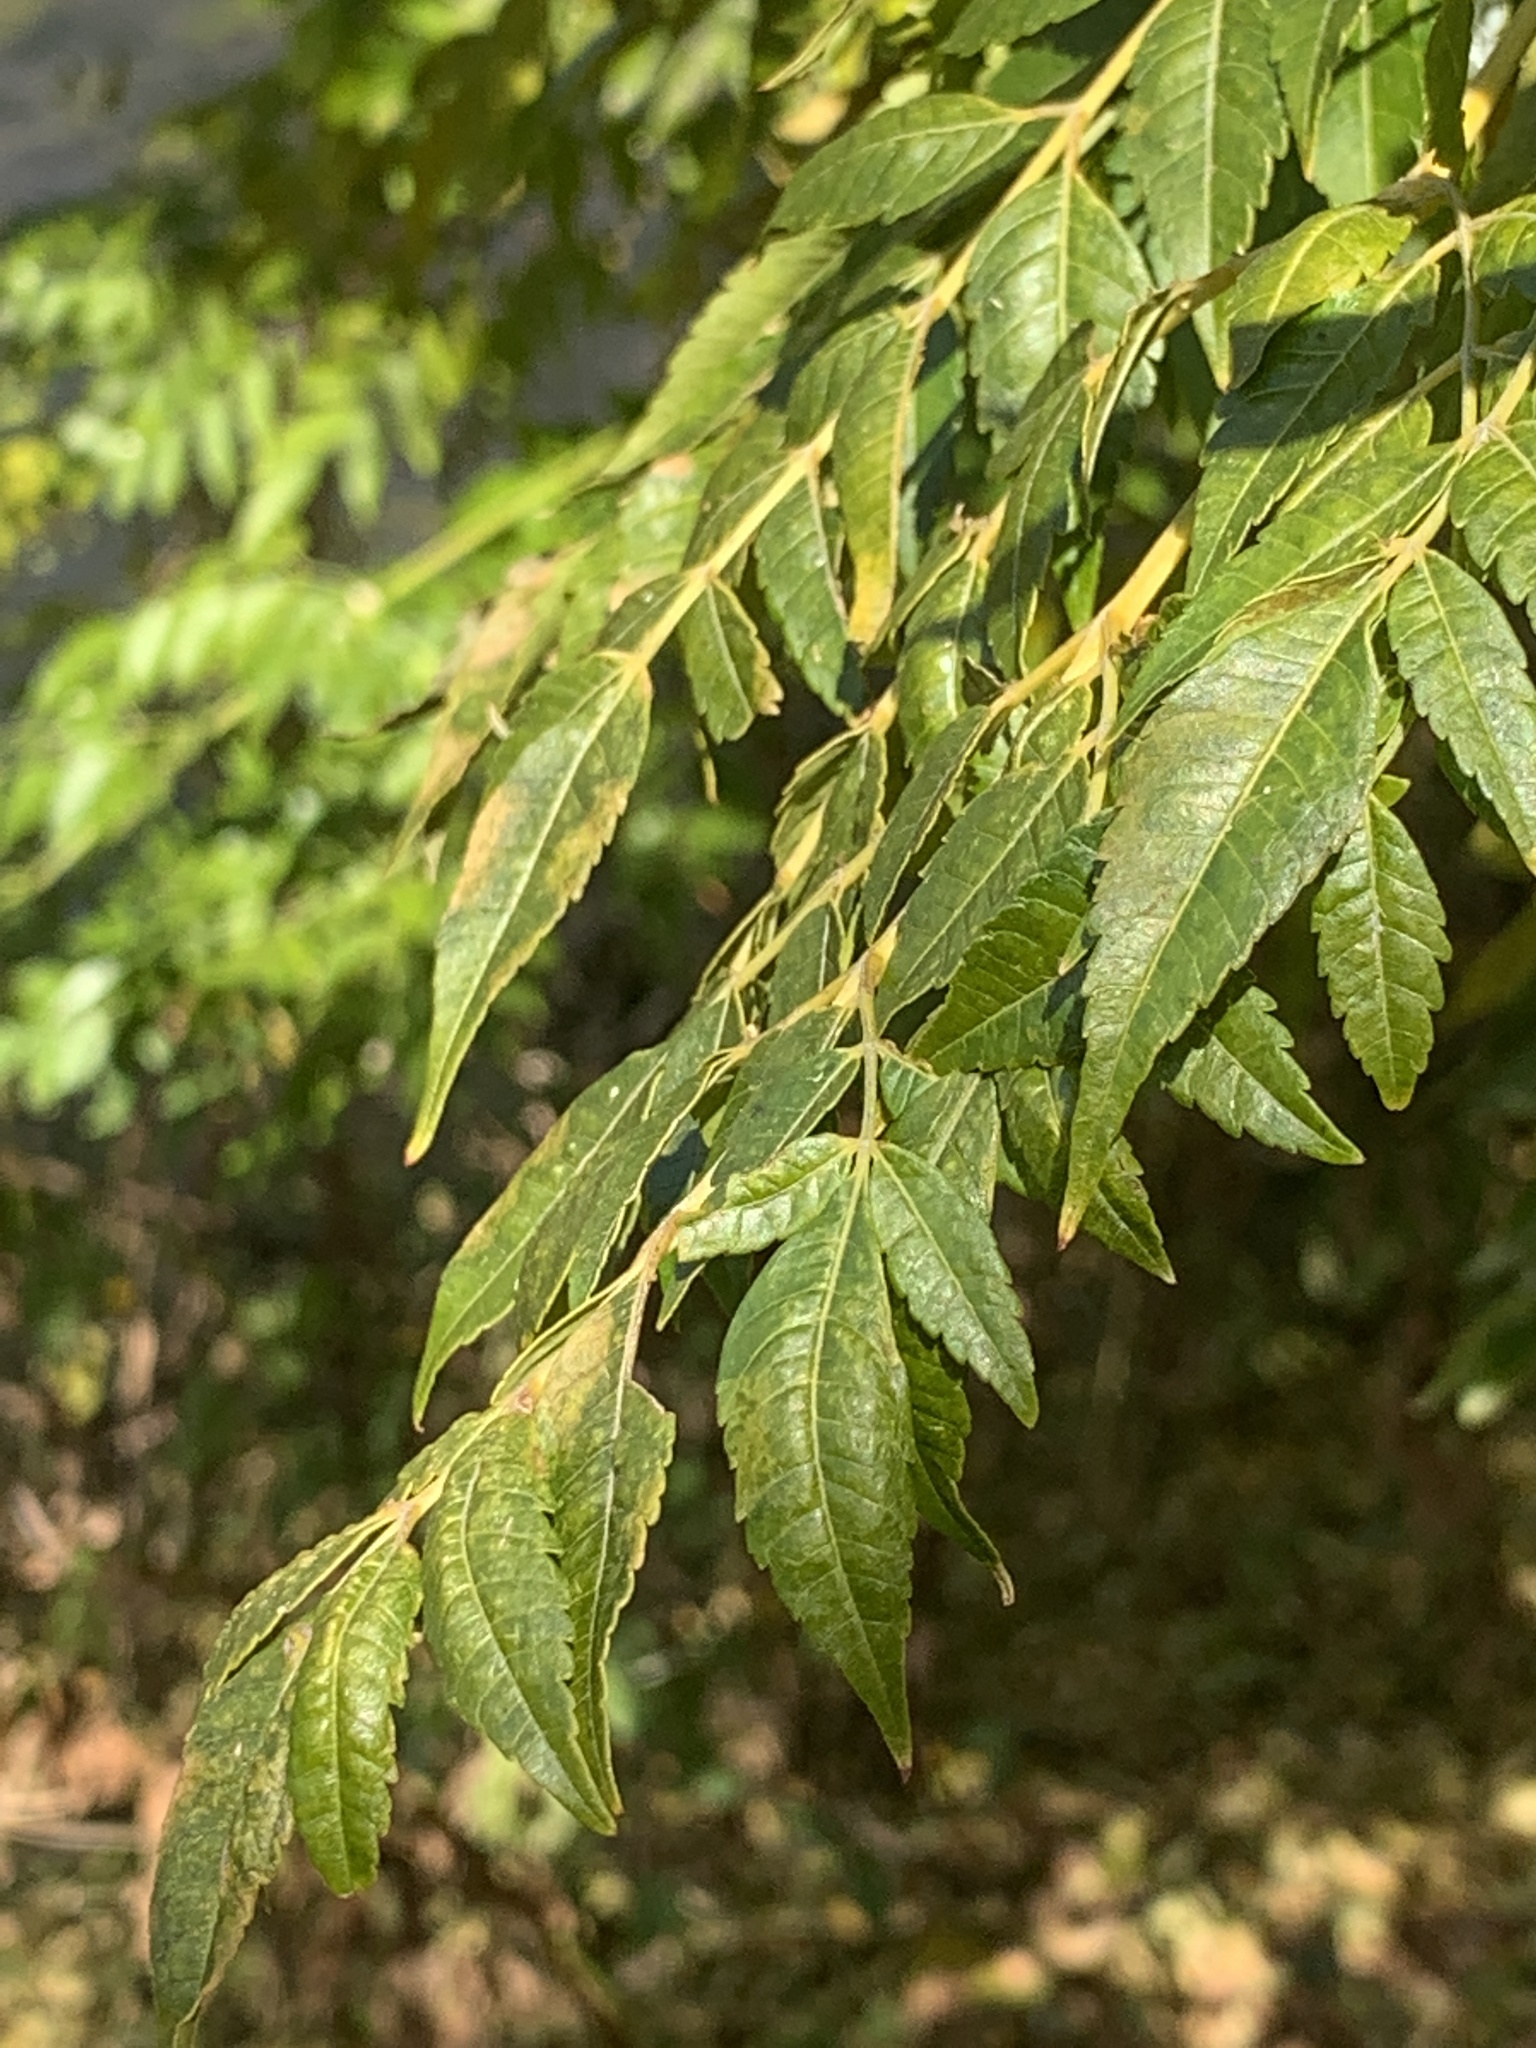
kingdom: Plantae
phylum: Tracheophyta
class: Magnoliopsida
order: Sapindales
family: Meliaceae
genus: Melia
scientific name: Melia azedarach
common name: Chinaberrytree
